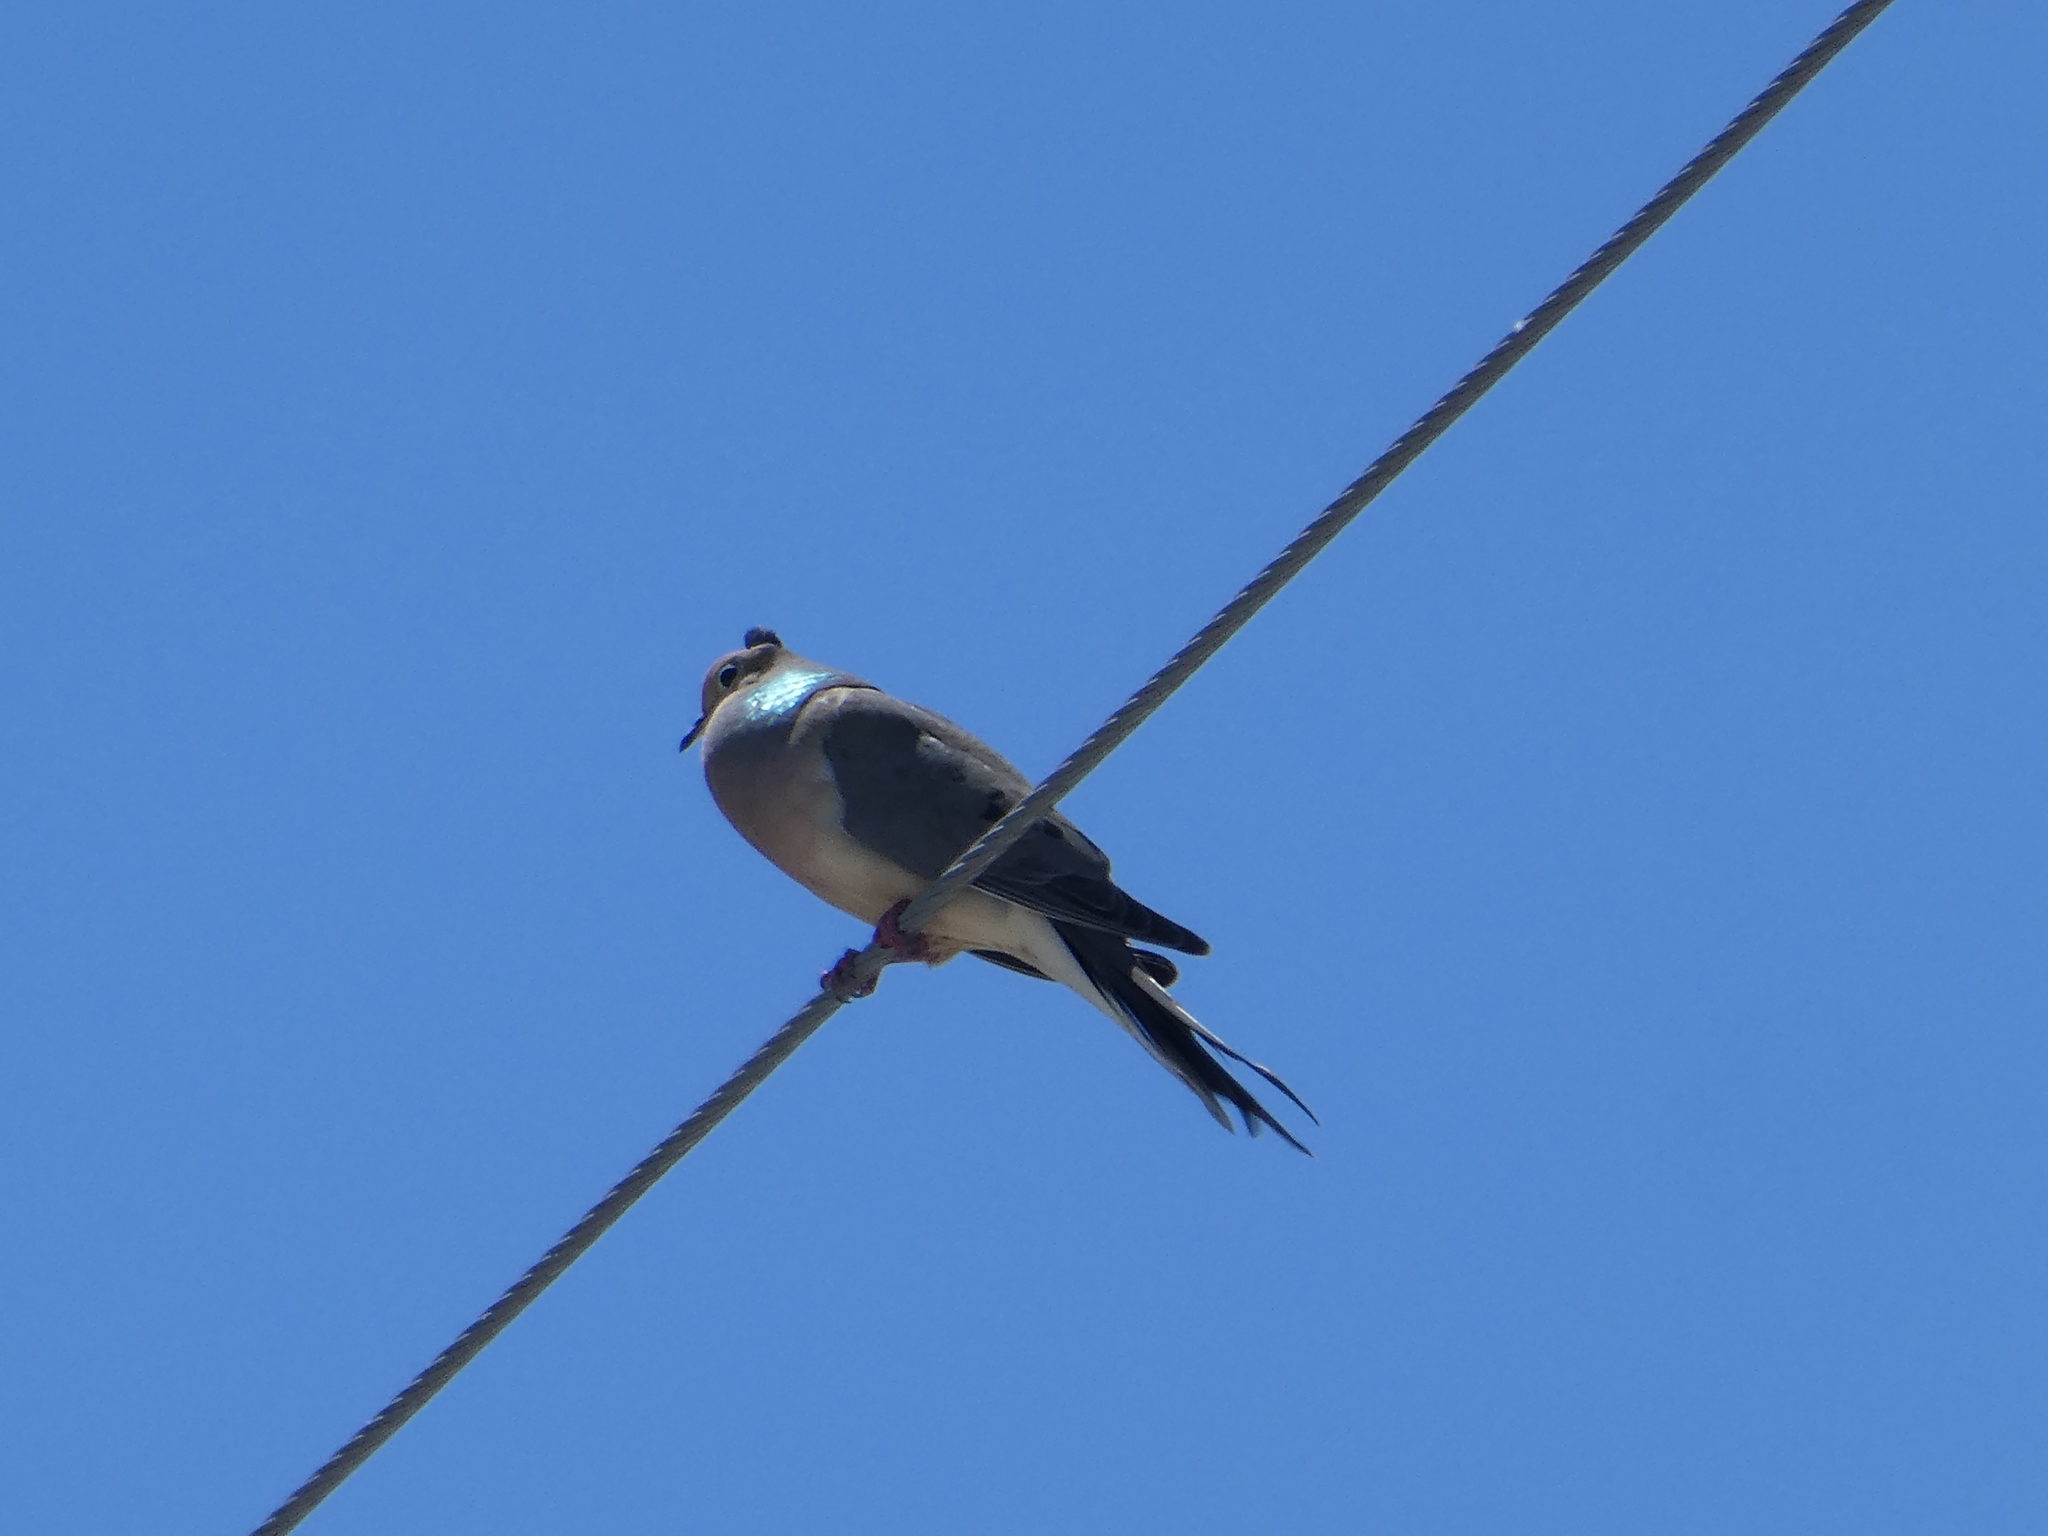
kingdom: Animalia
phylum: Chordata
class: Aves
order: Columbiformes
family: Columbidae
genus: Zenaida
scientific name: Zenaida macroura
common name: Mourning dove
